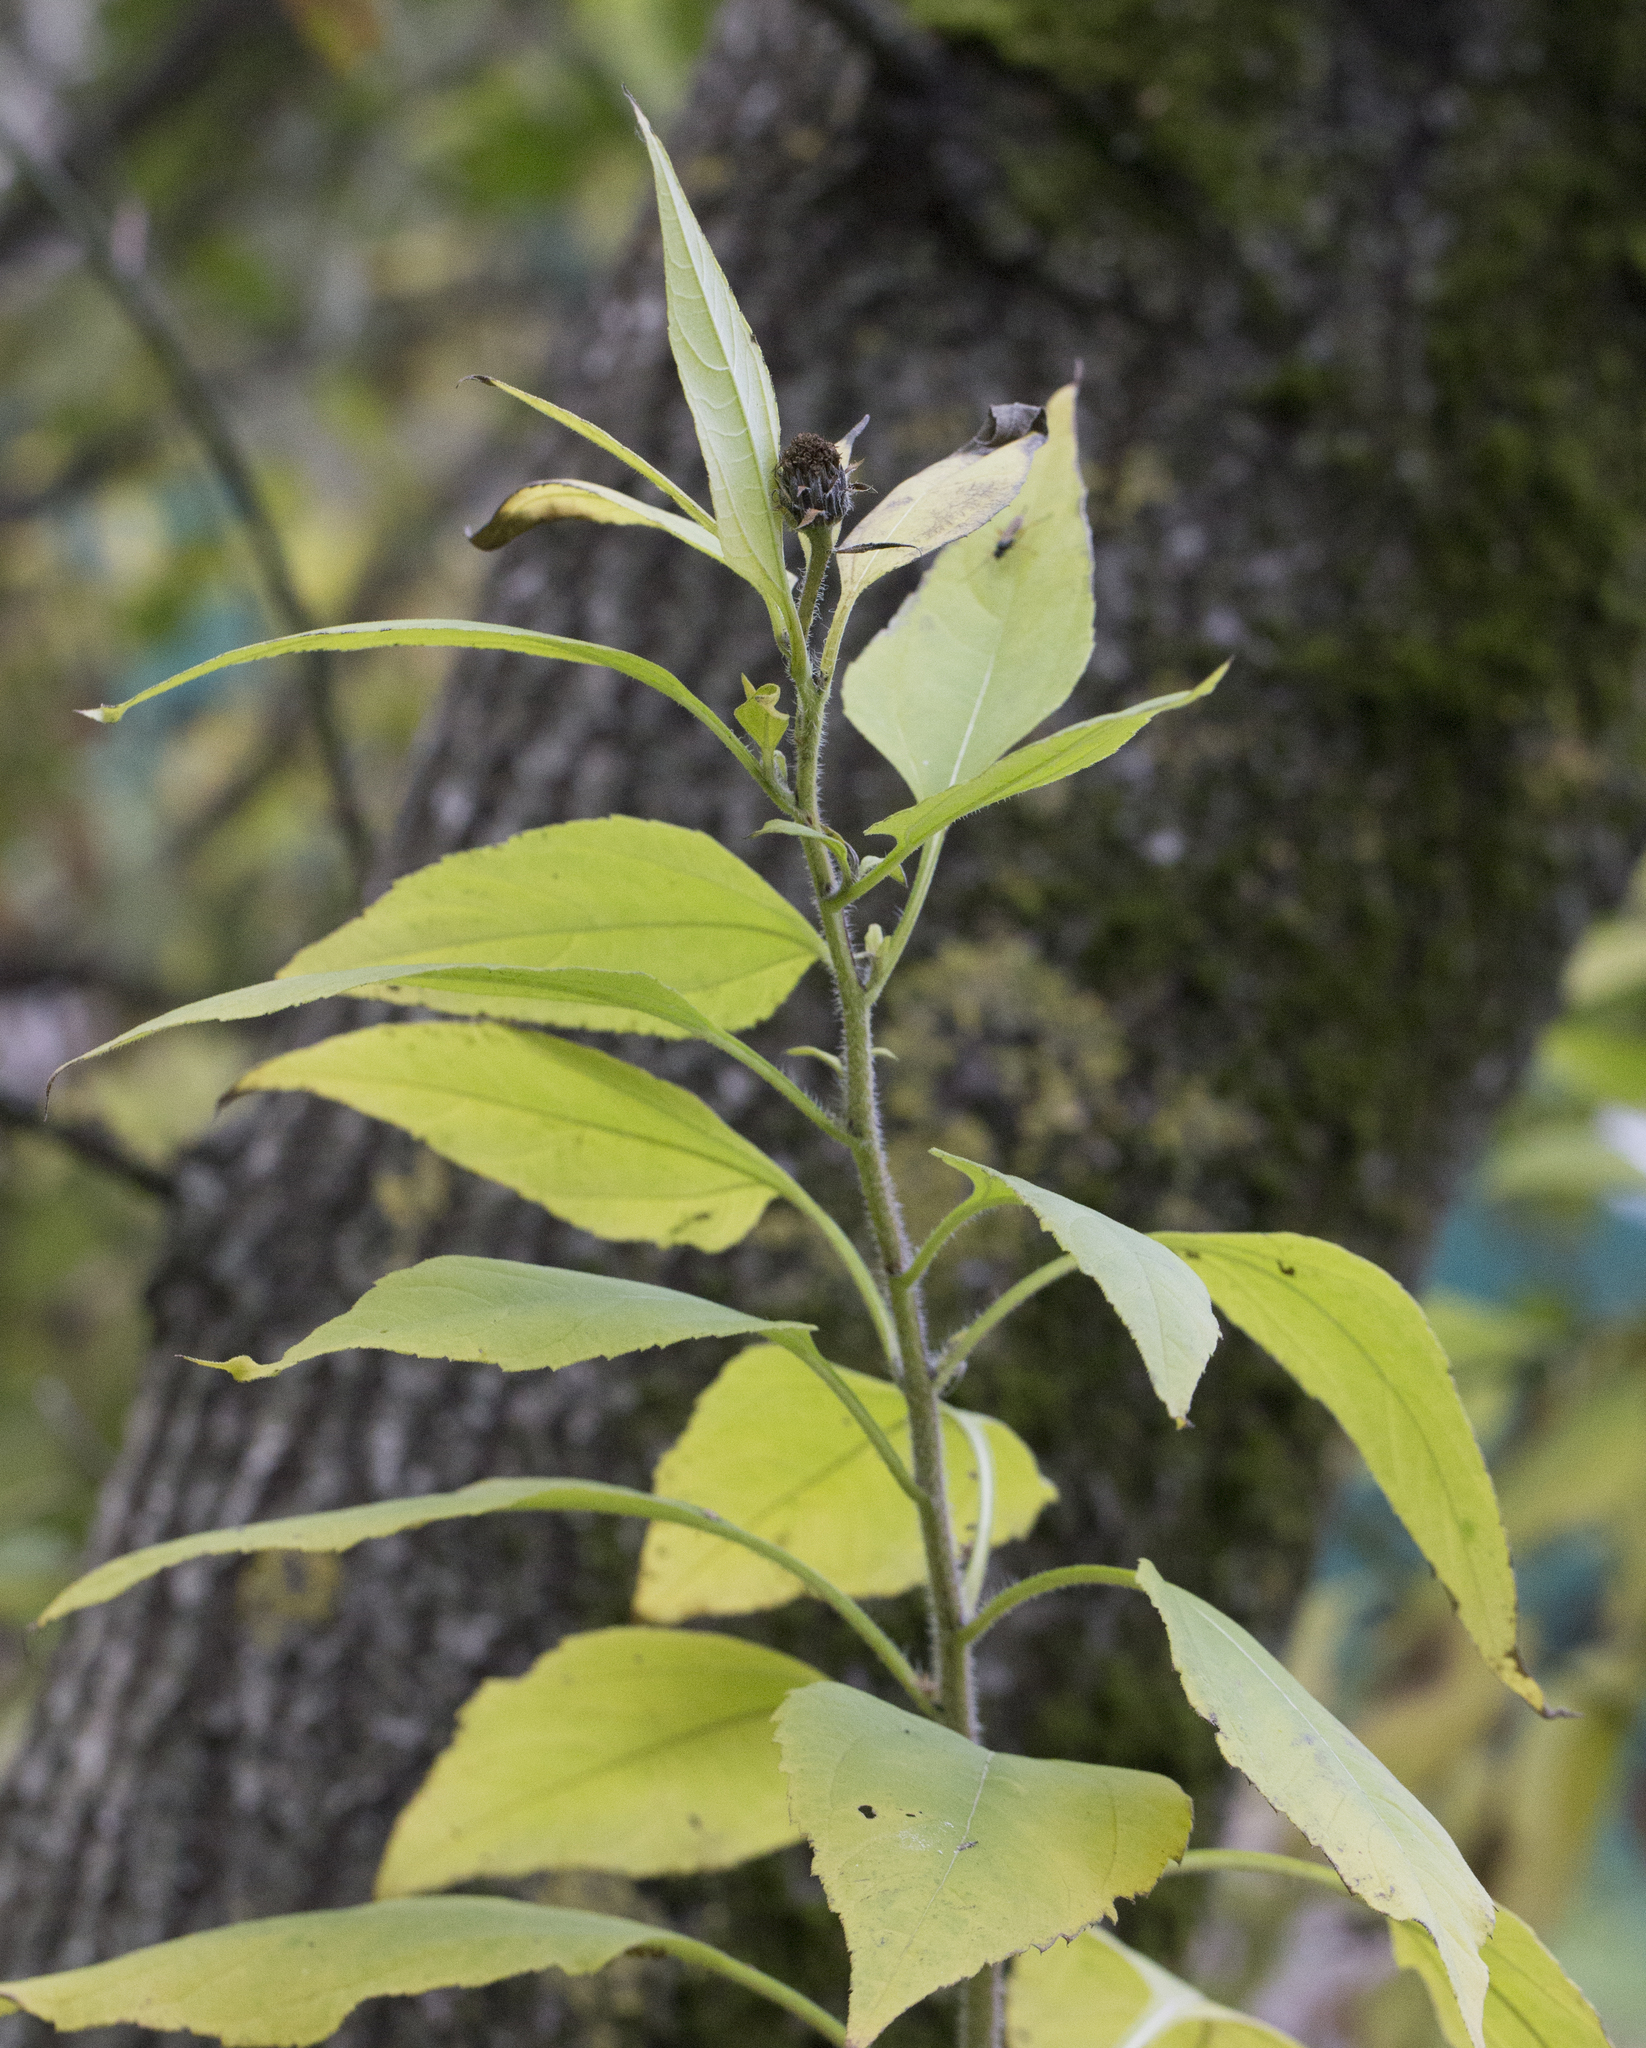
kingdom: Plantae
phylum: Tracheophyta
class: Magnoliopsida
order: Asterales
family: Asteraceae
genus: Helianthus
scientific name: Helianthus tuberosus
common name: Jerusalem artichoke
